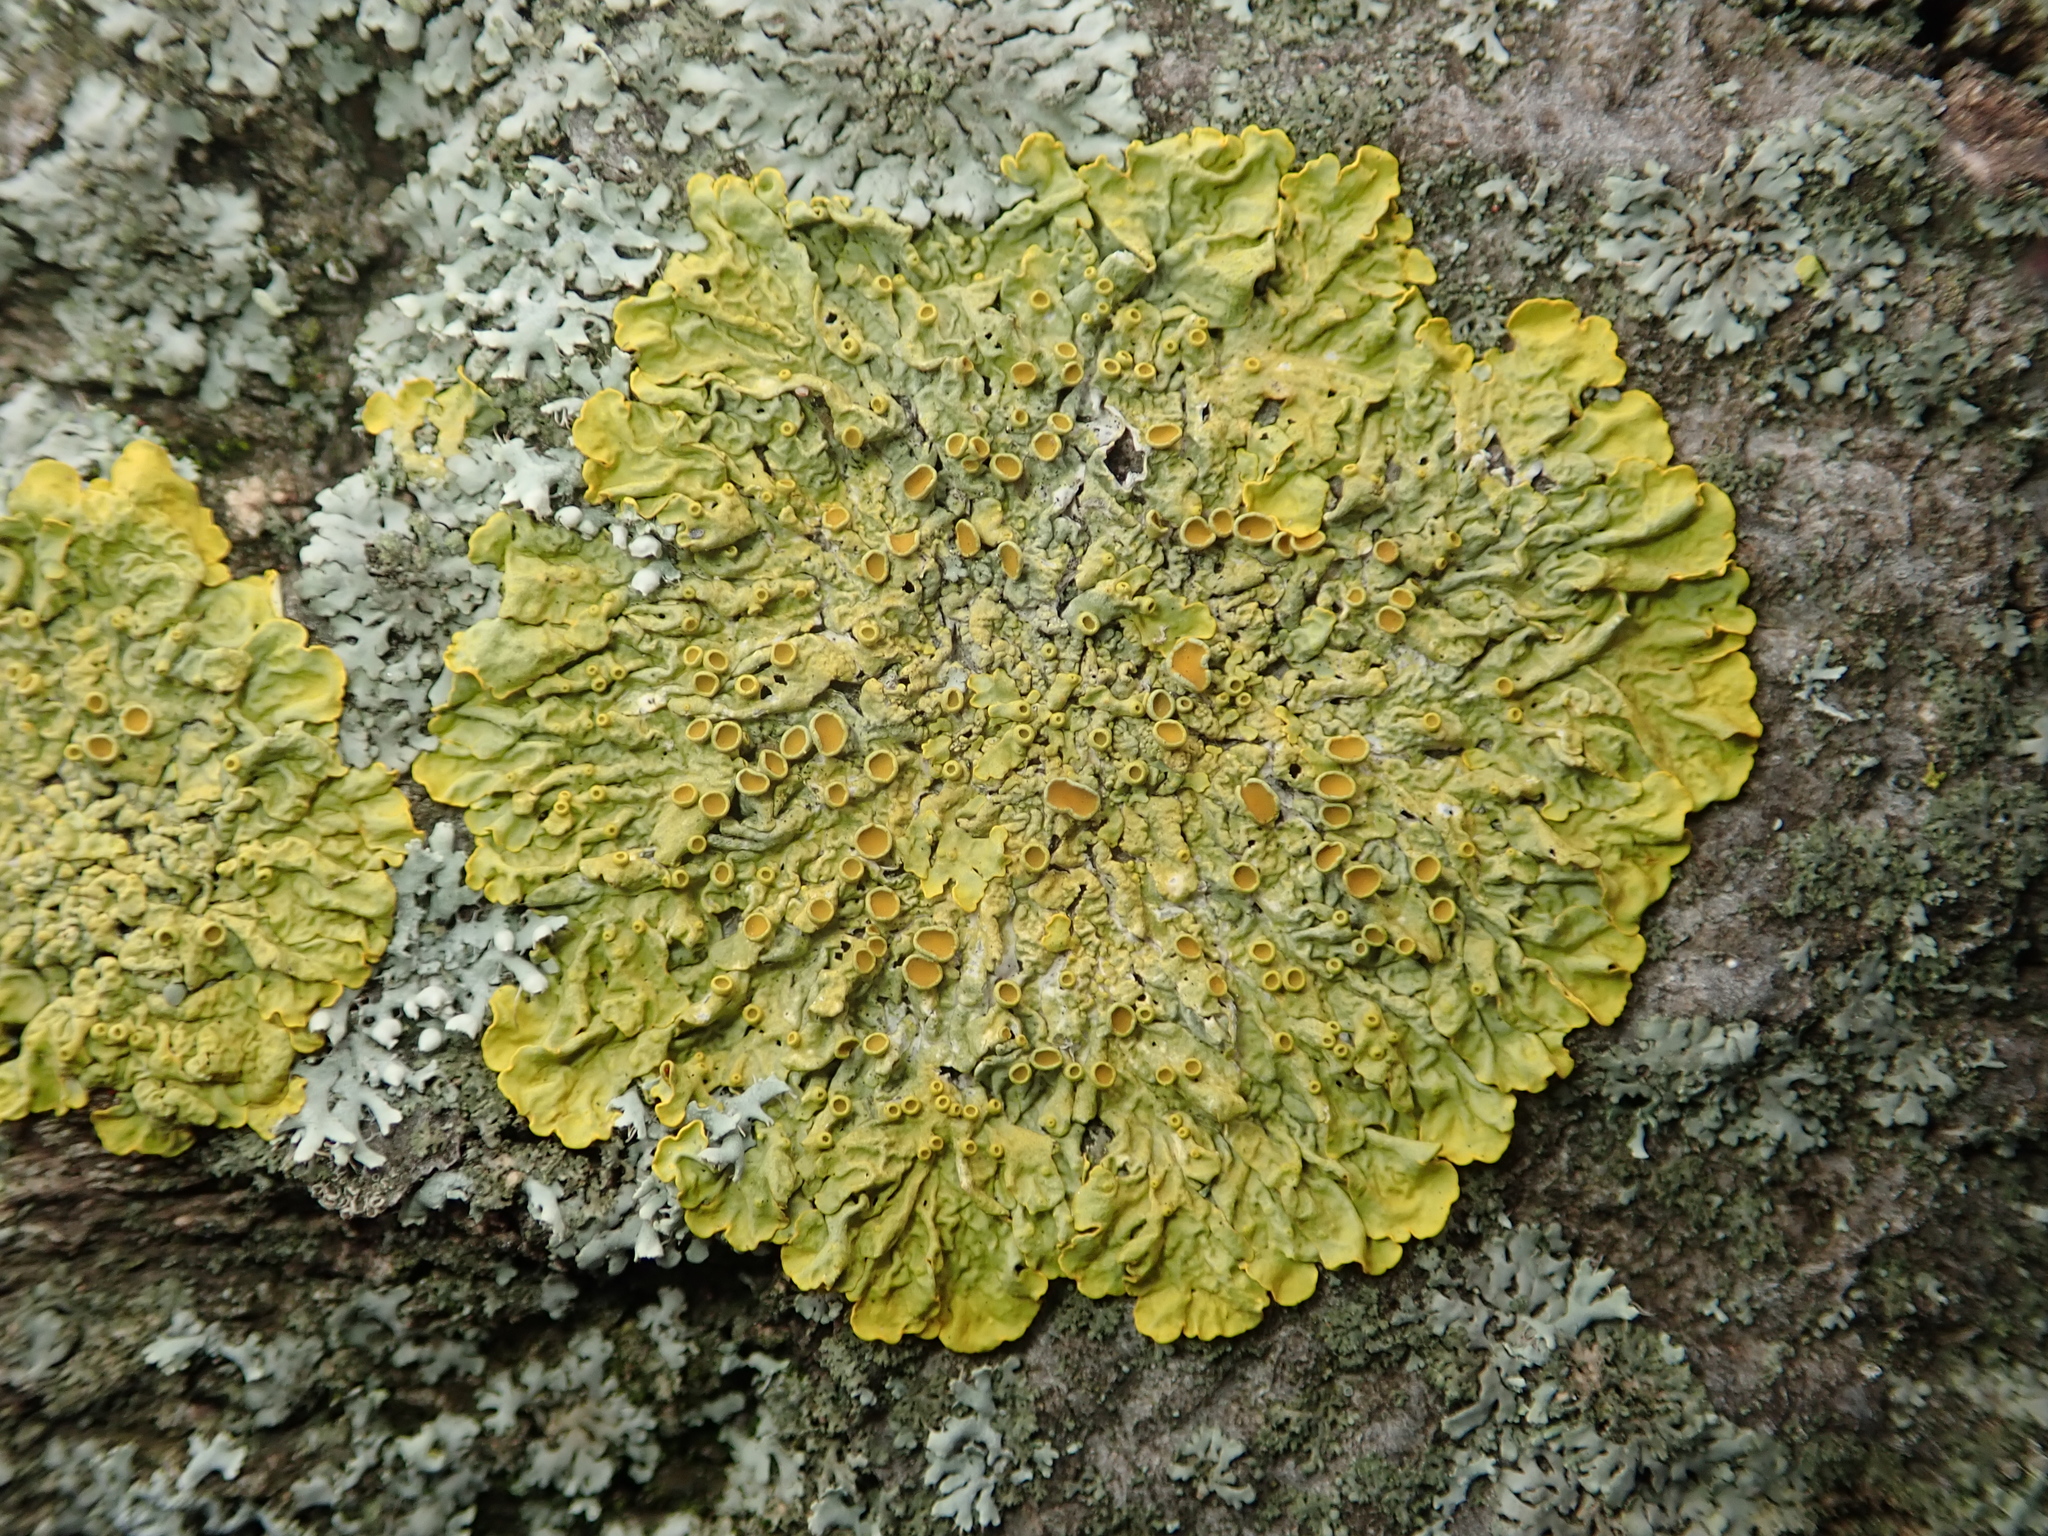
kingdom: Fungi
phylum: Ascomycota
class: Lecanoromycetes
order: Teloschistales
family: Teloschistaceae
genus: Xanthoria
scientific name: Xanthoria parietina
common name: Common orange lichen
